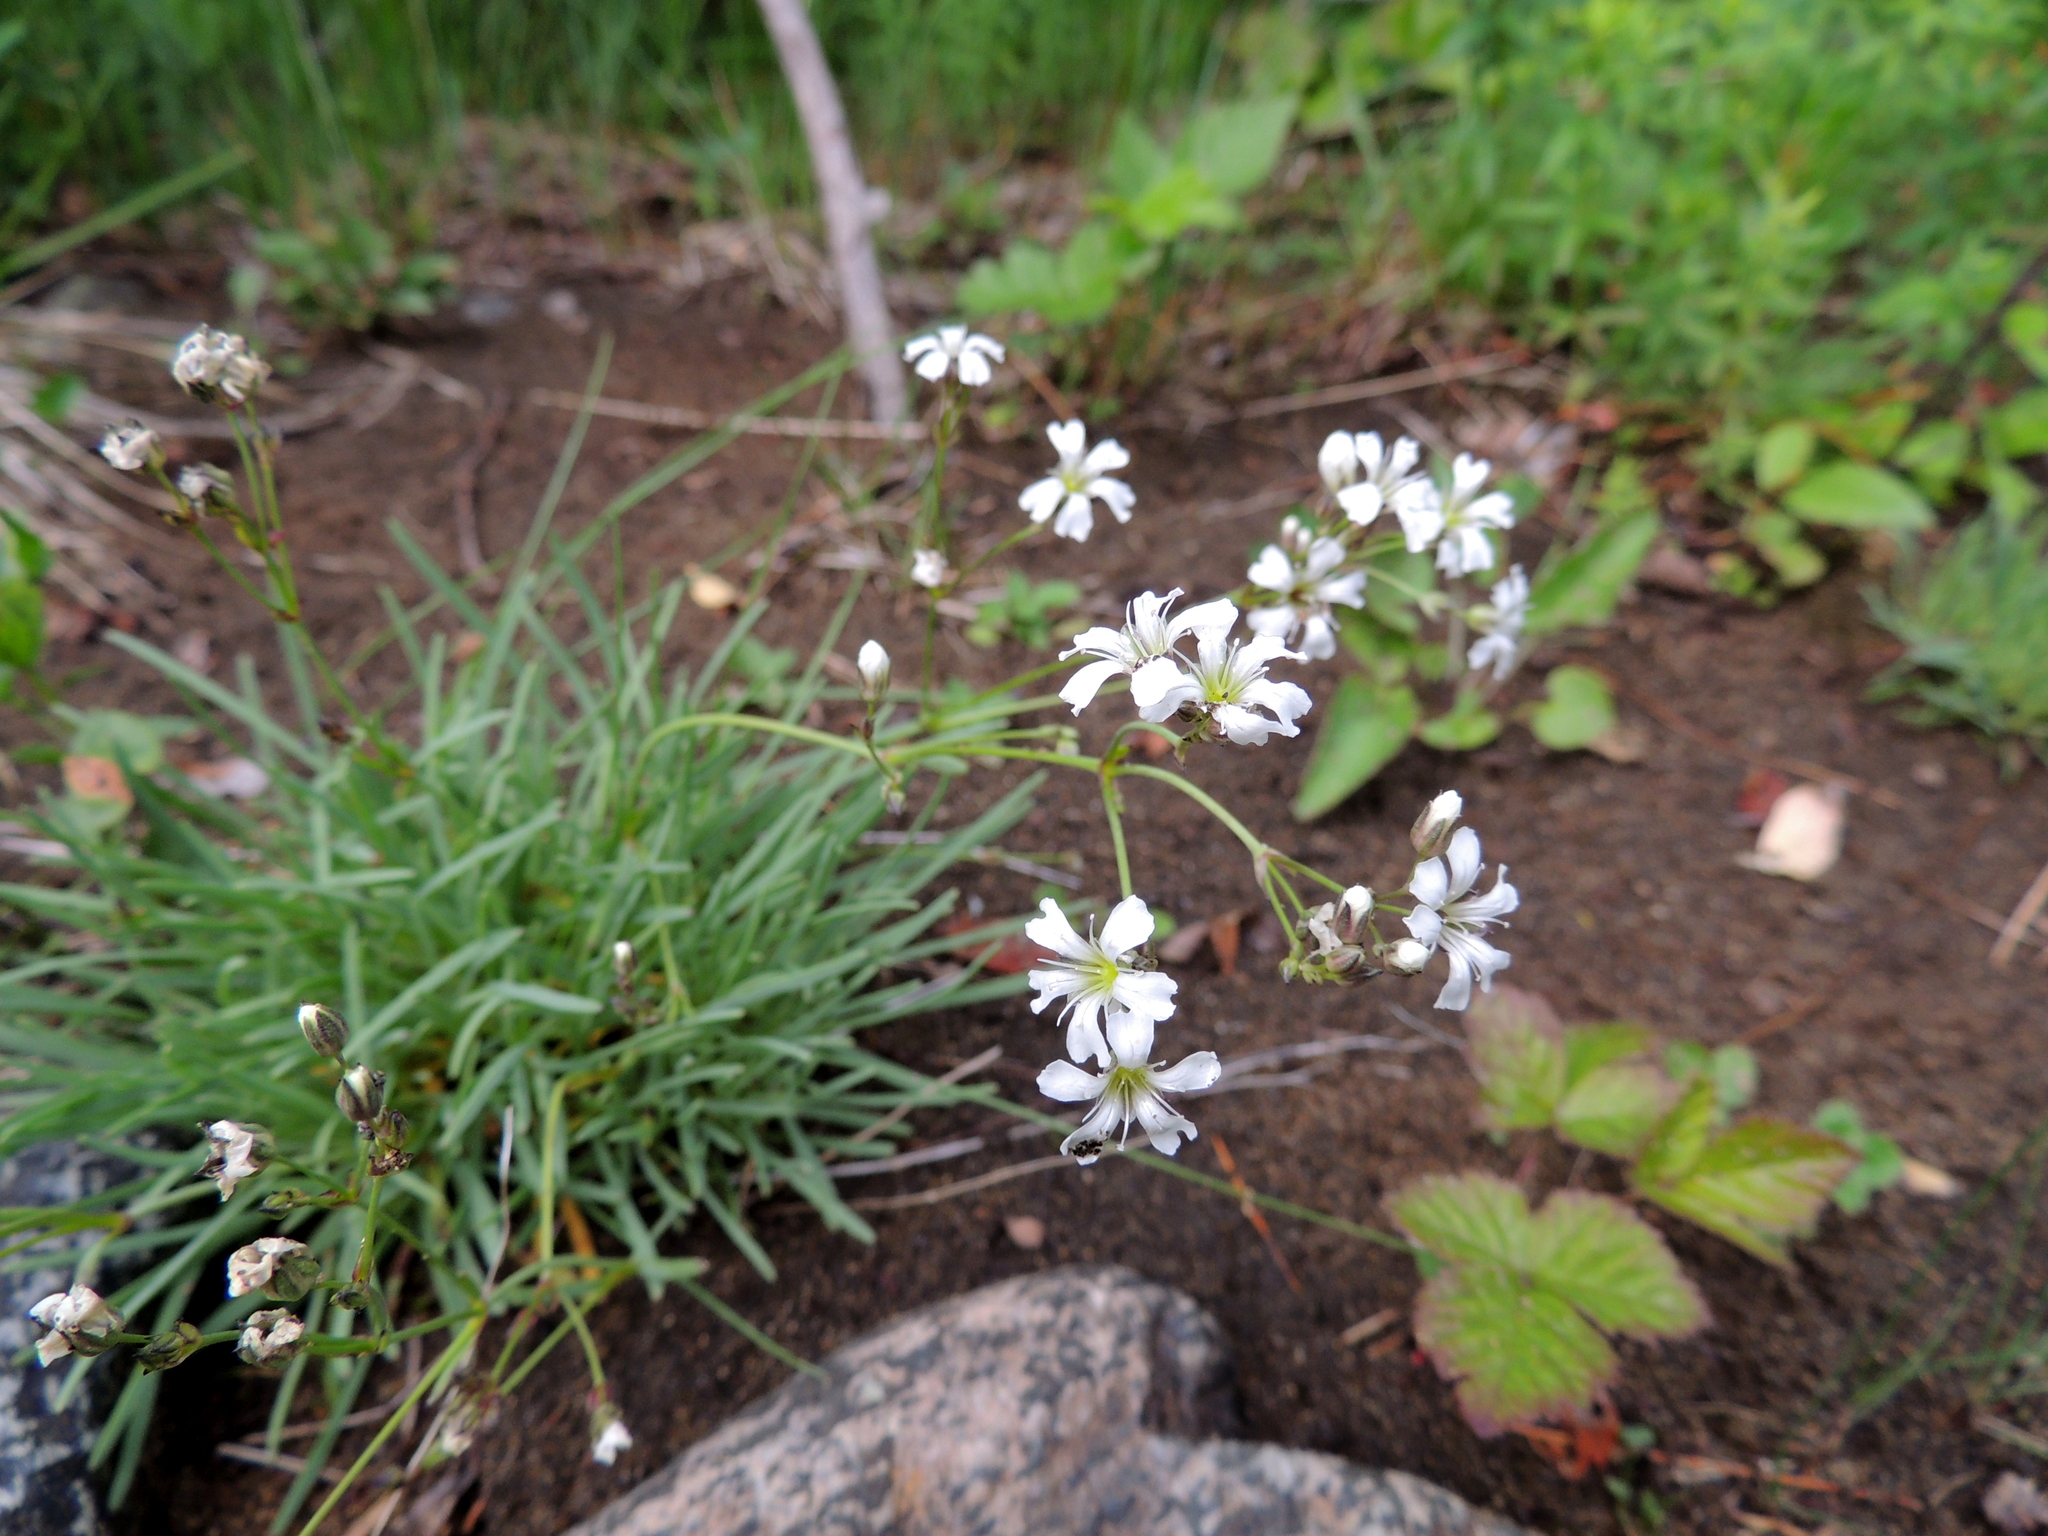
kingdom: Plantae
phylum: Tracheophyta
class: Magnoliopsida
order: Caryophyllales
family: Caryophyllaceae
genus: Gypsophila
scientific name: Gypsophila uralensis
